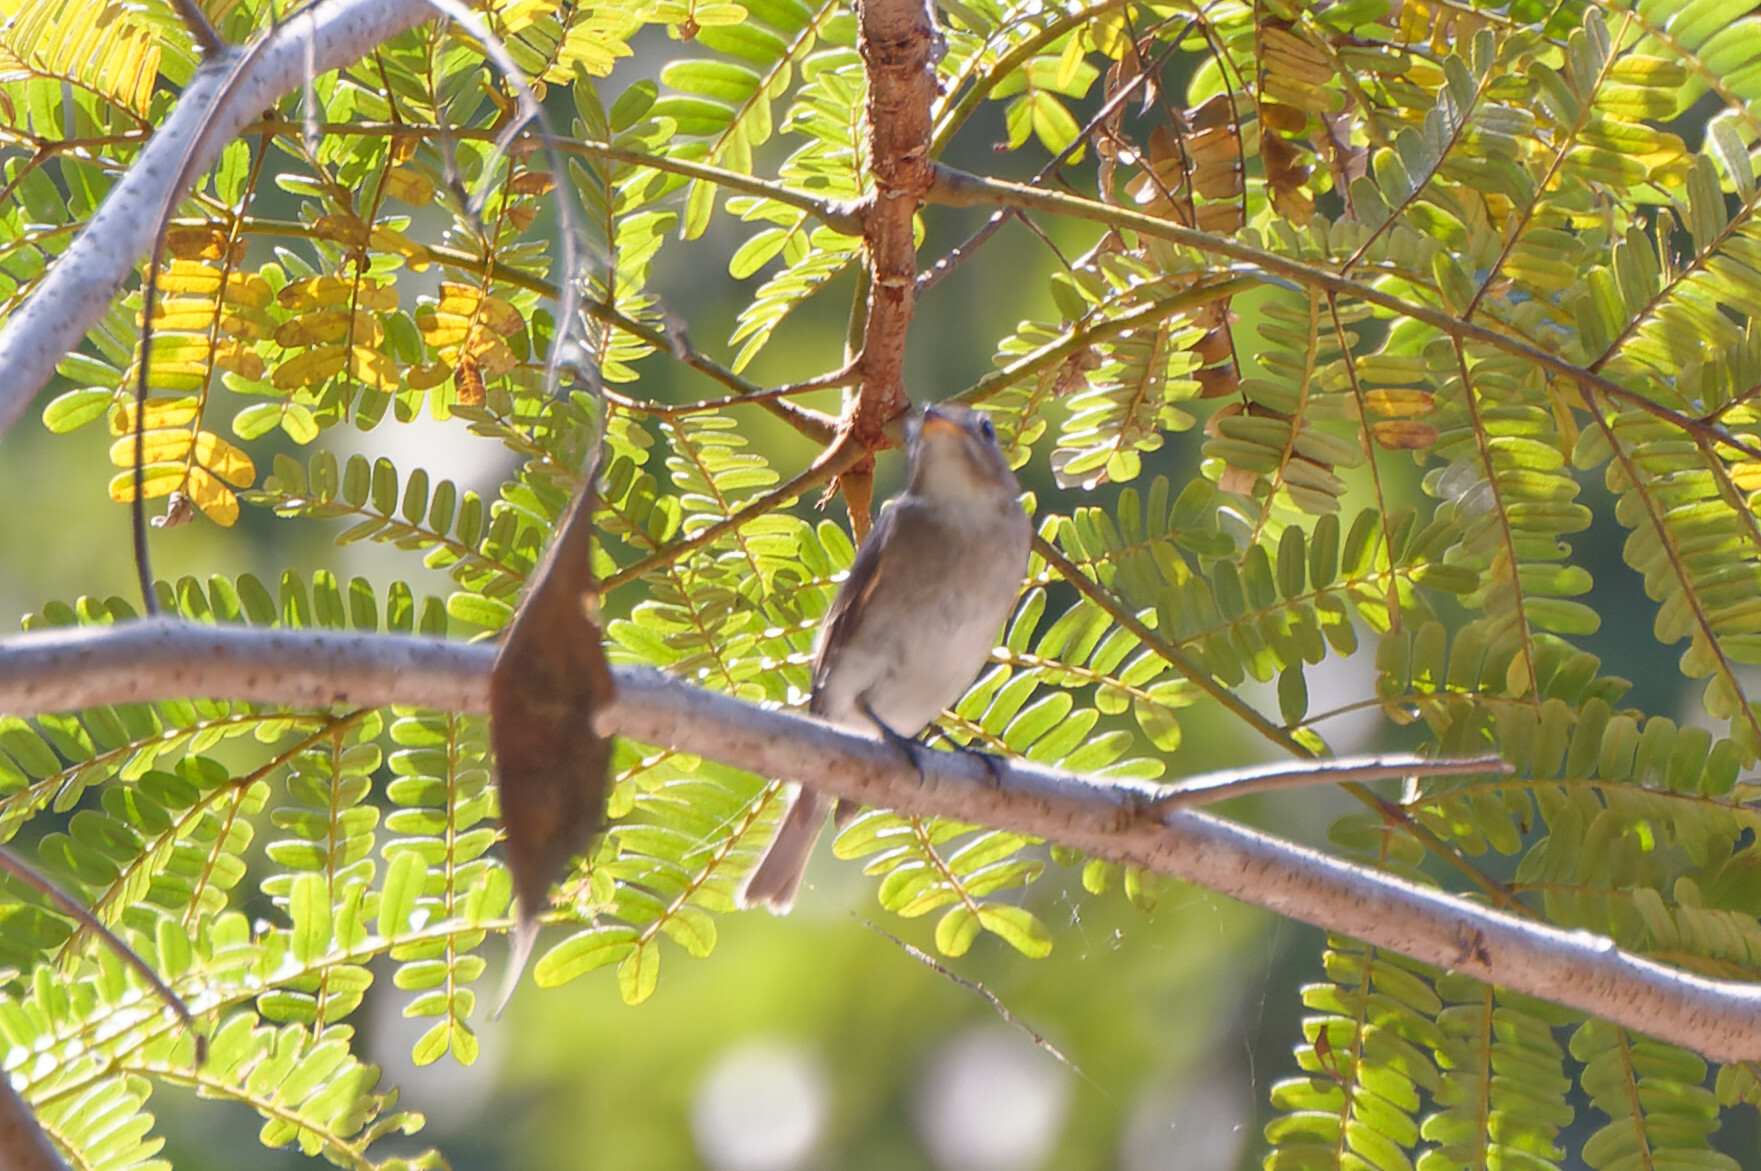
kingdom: Animalia
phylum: Chordata
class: Aves
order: Passeriformes
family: Muscicapidae
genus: Muscicapa
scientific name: Muscicapa latirostris
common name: Asian brown flycatcher
